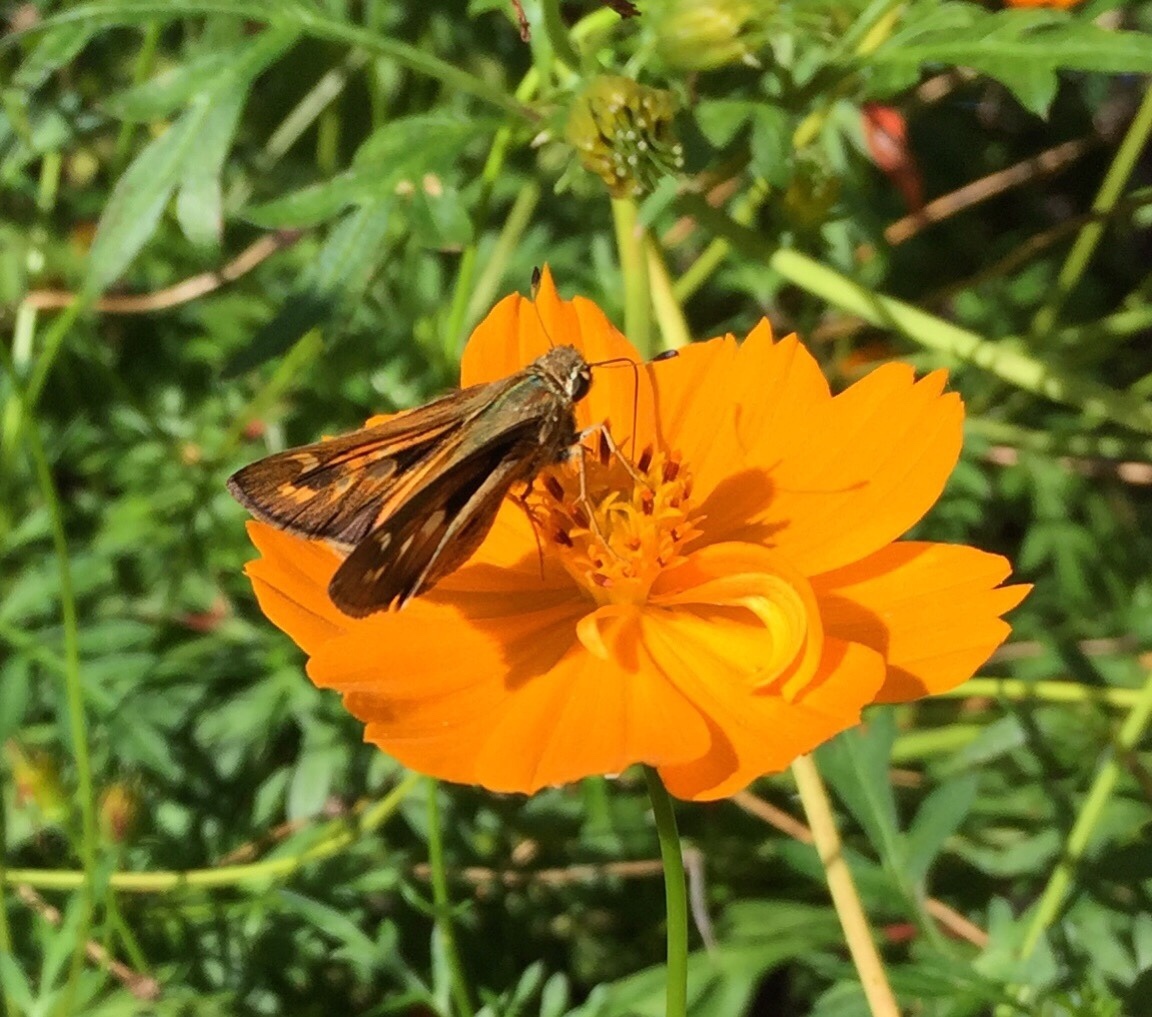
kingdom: Animalia
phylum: Arthropoda
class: Insecta
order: Lepidoptera
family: Hesperiidae
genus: Atalopedes
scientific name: Atalopedes
